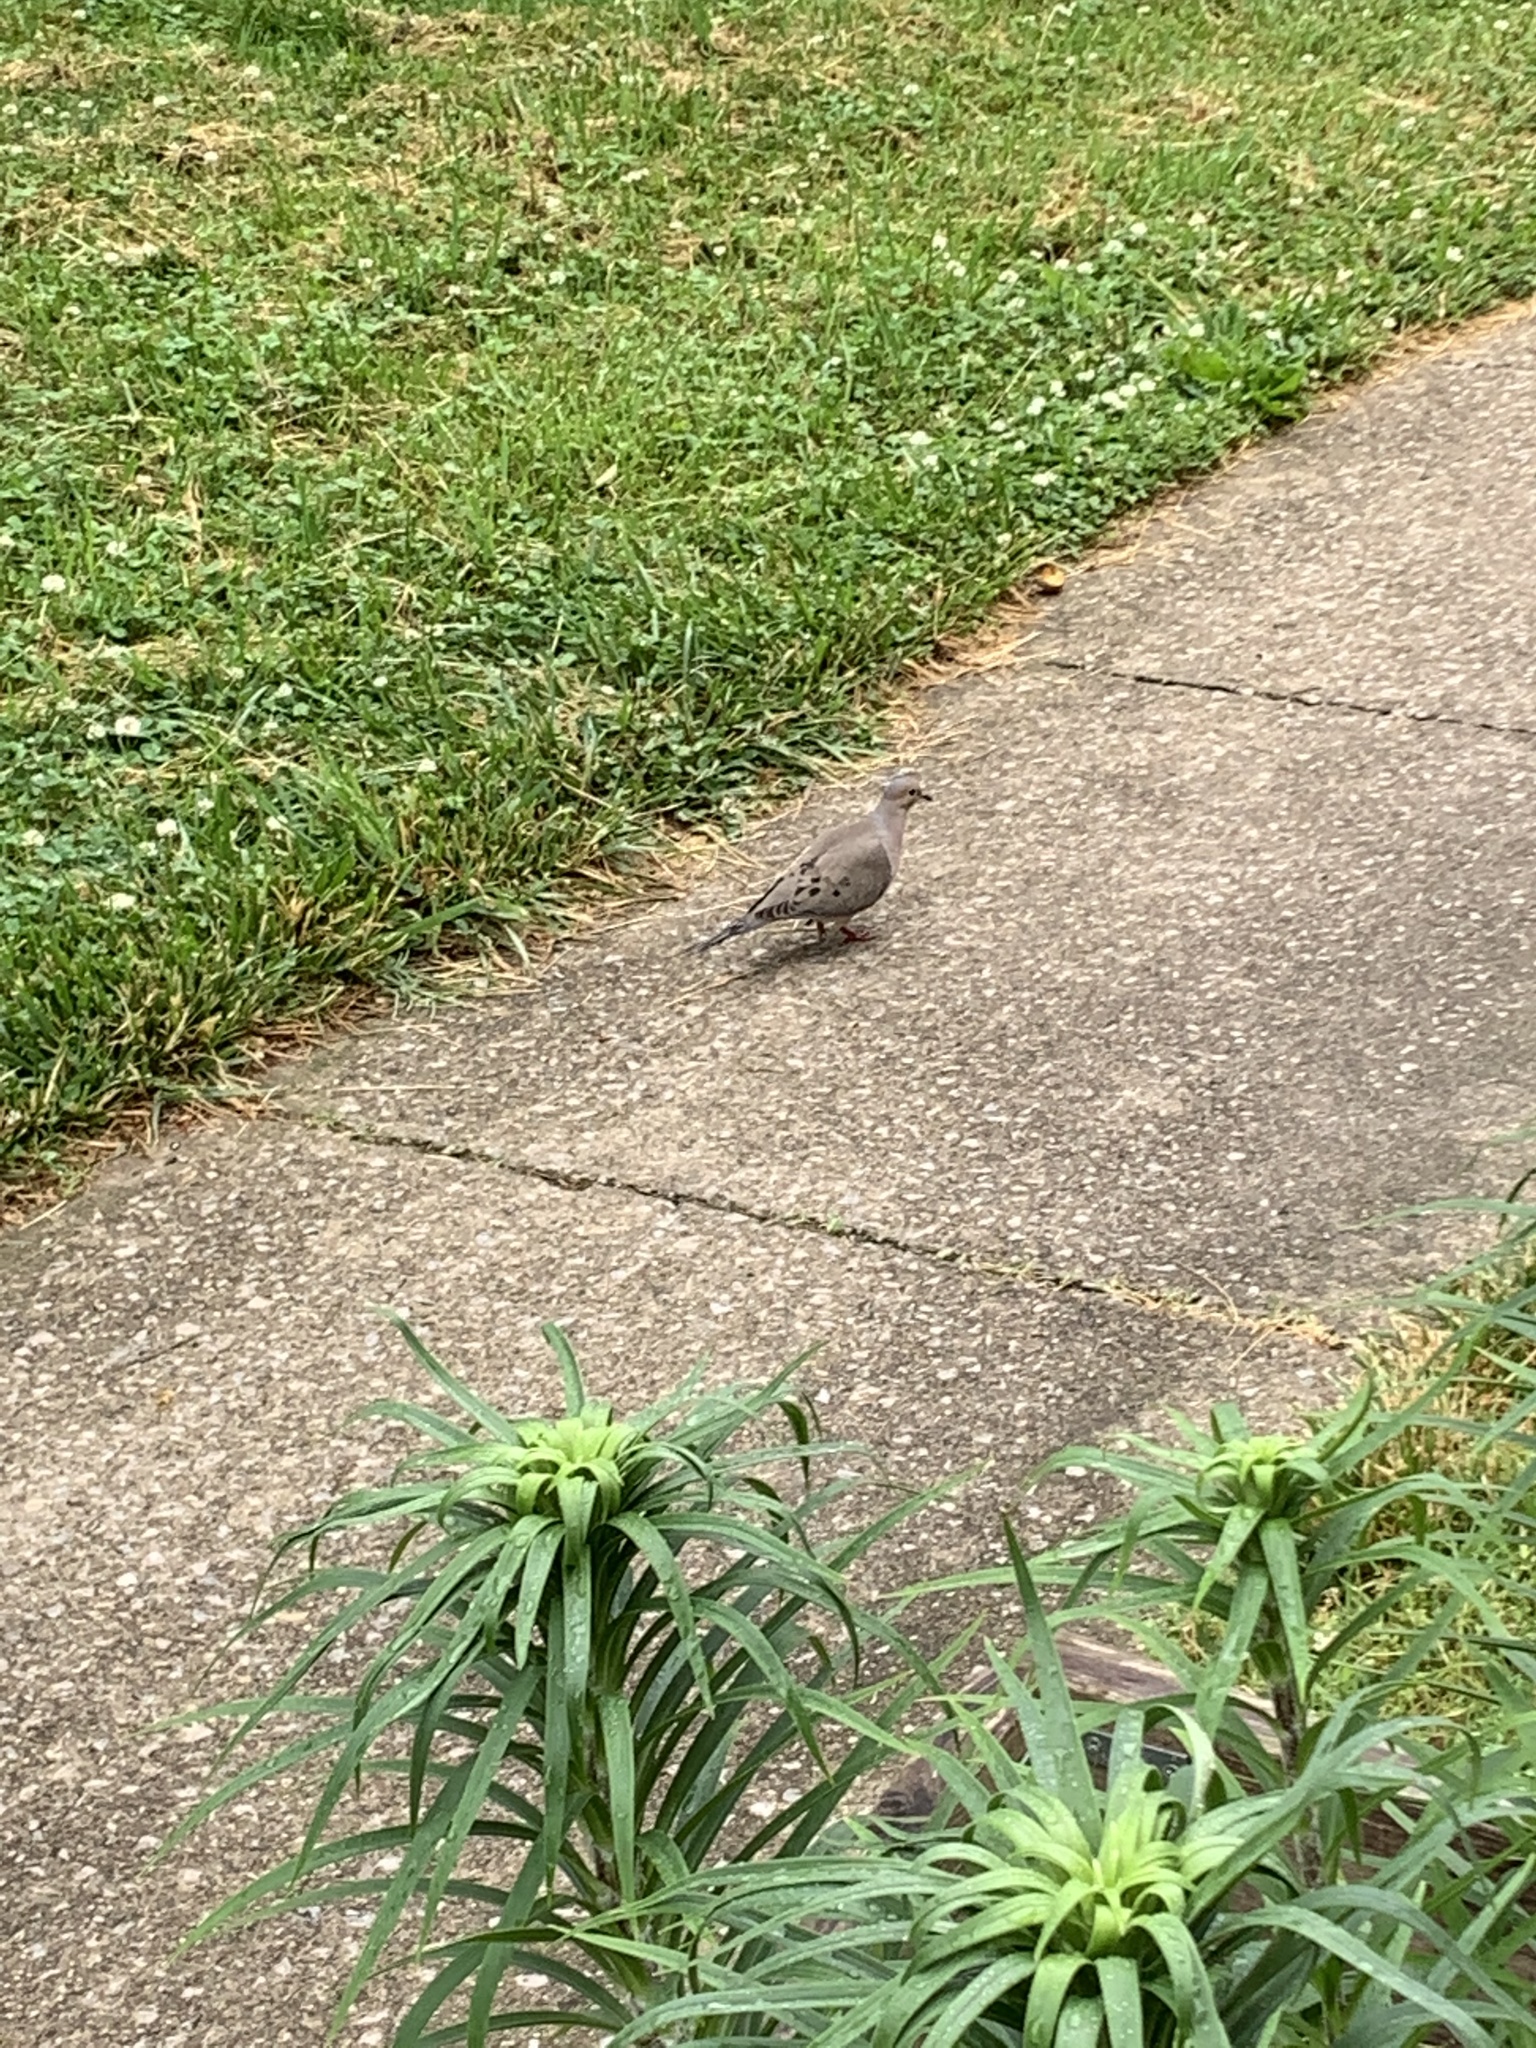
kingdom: Animalia
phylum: Chordata
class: Aves
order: Columbiformes
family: Columbidae
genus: Zenaida
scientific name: Zenaida macroura
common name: Mourning dove
